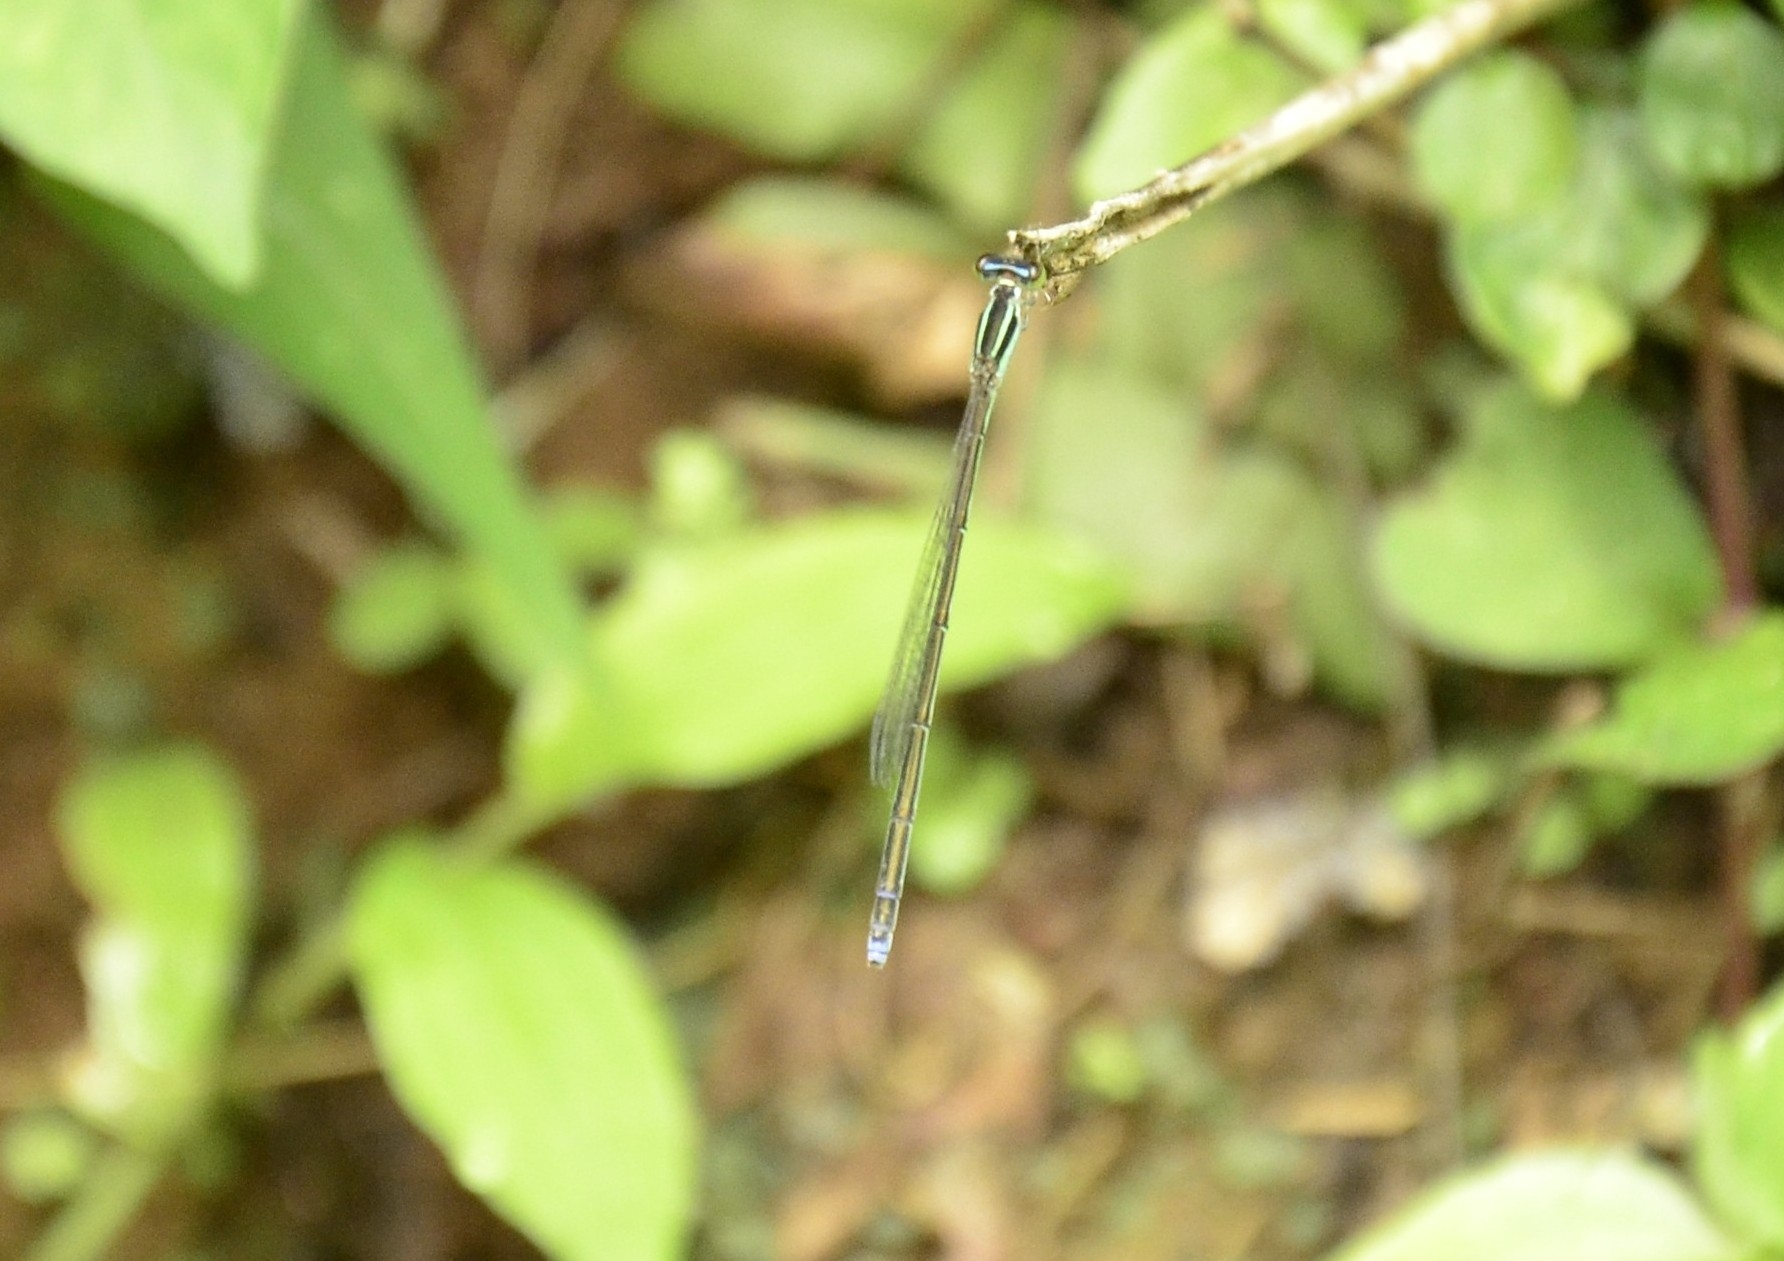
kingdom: Animalia
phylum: Arthropoda
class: Insecta
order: Odonata
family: Coenagrionidae
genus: Aciagrion
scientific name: Aciagrion occidentale
